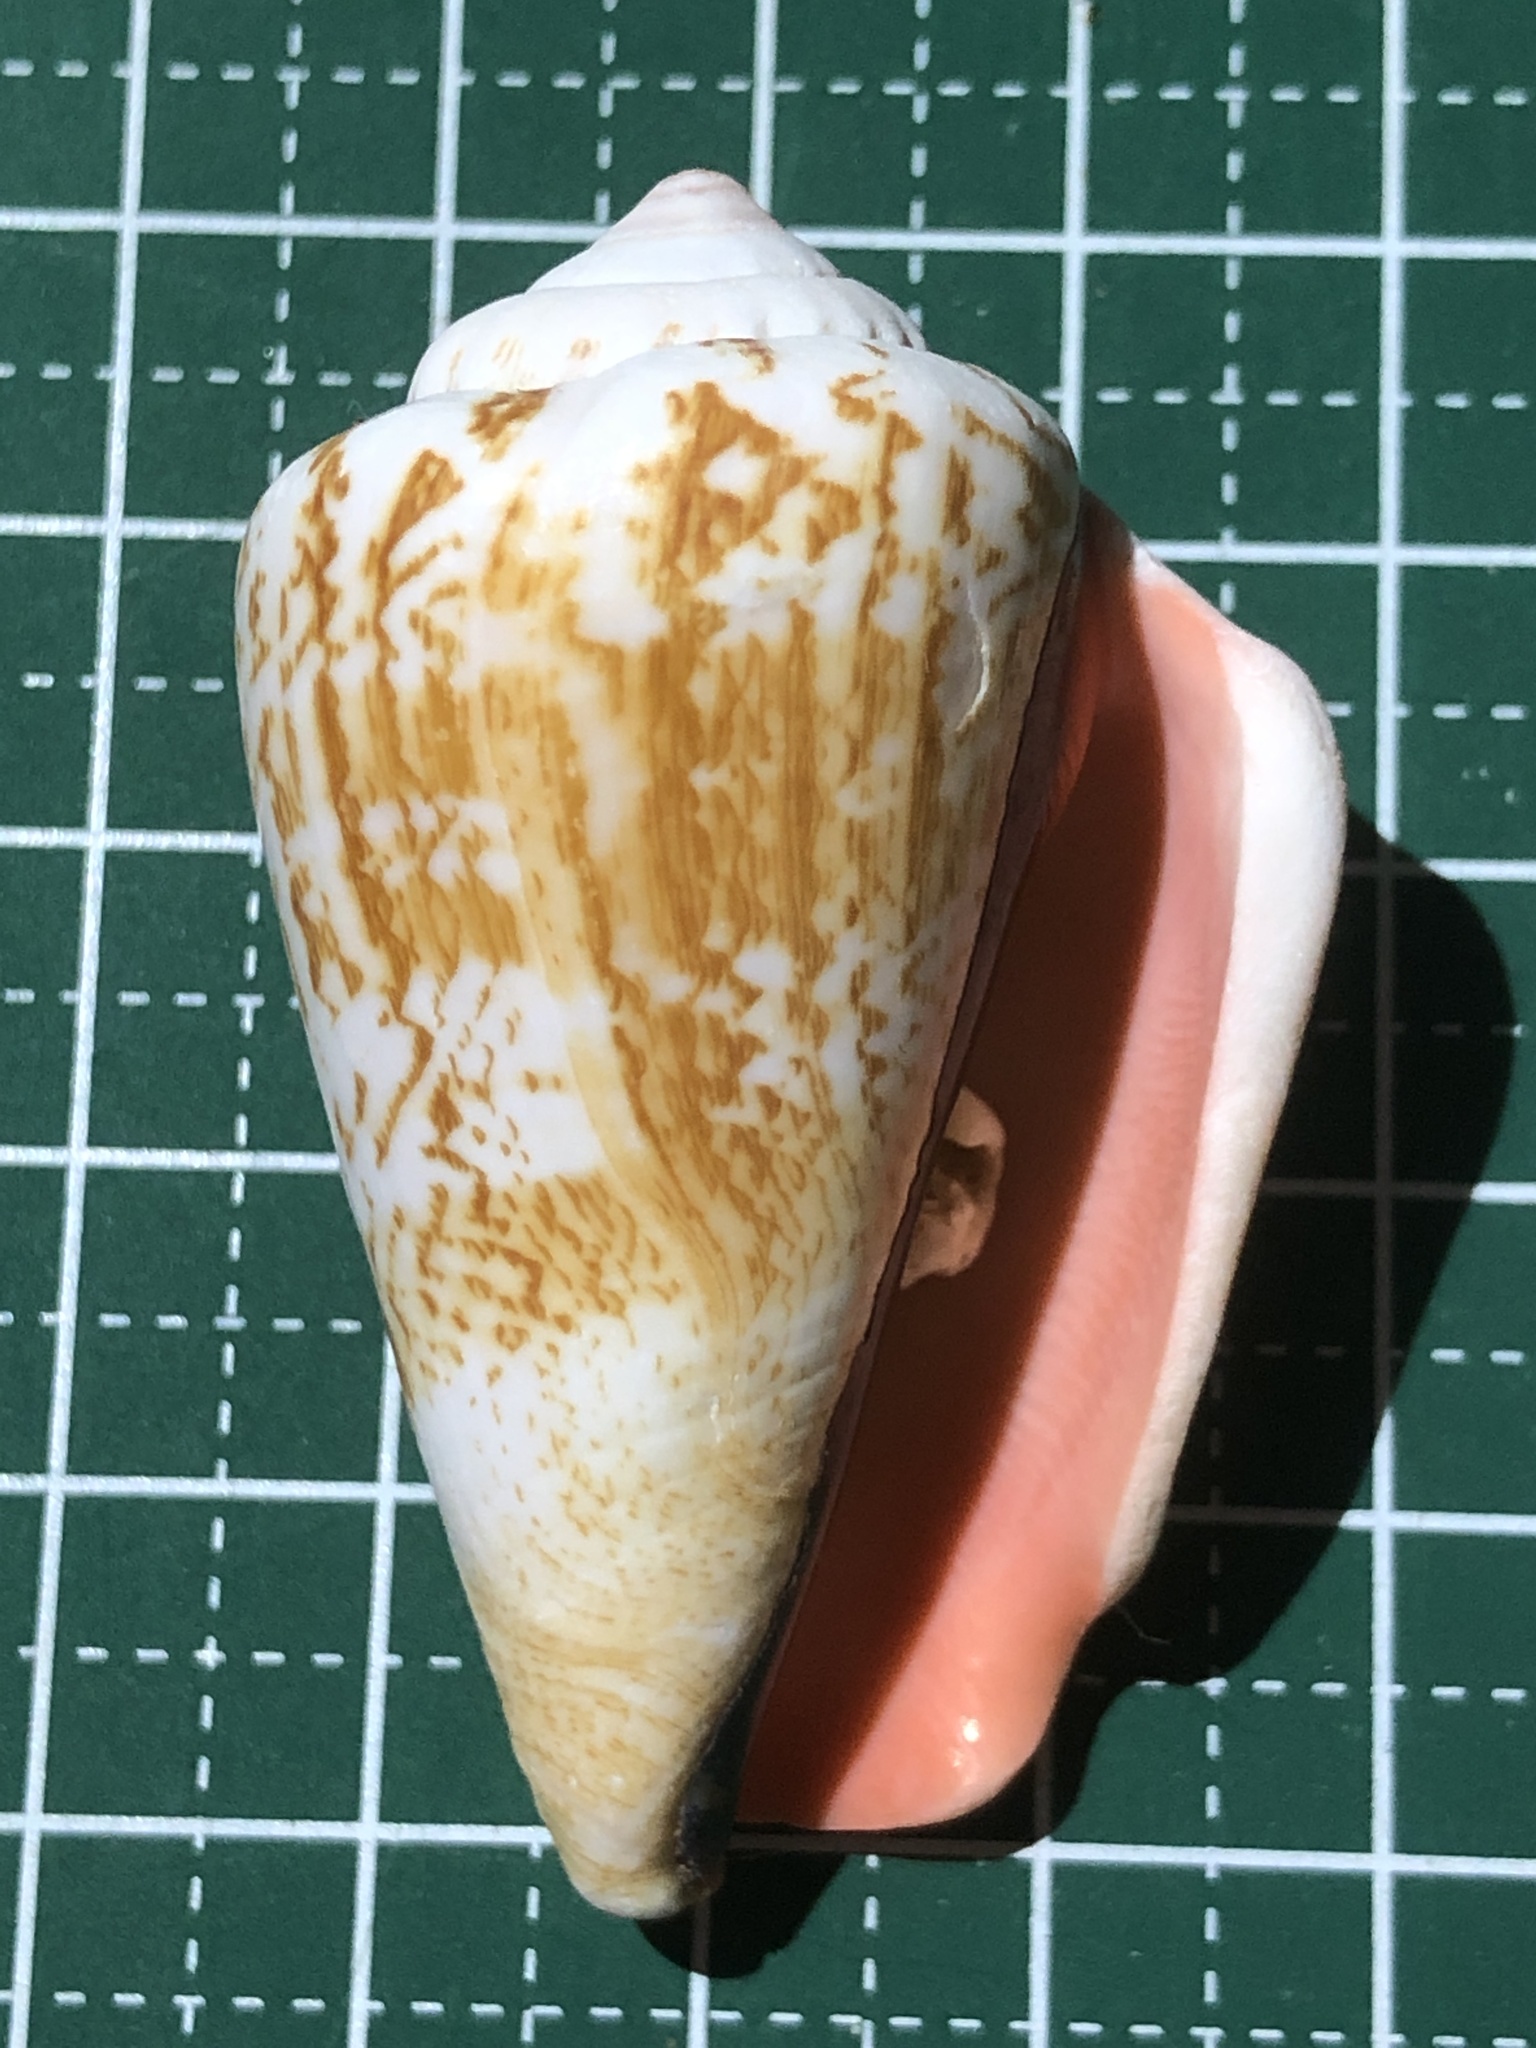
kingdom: Animalia
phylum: Mollusca
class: Gastropoda
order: Littorinimorpha
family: Strombidae
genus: Conomurex
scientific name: Conomurex luhuanus
